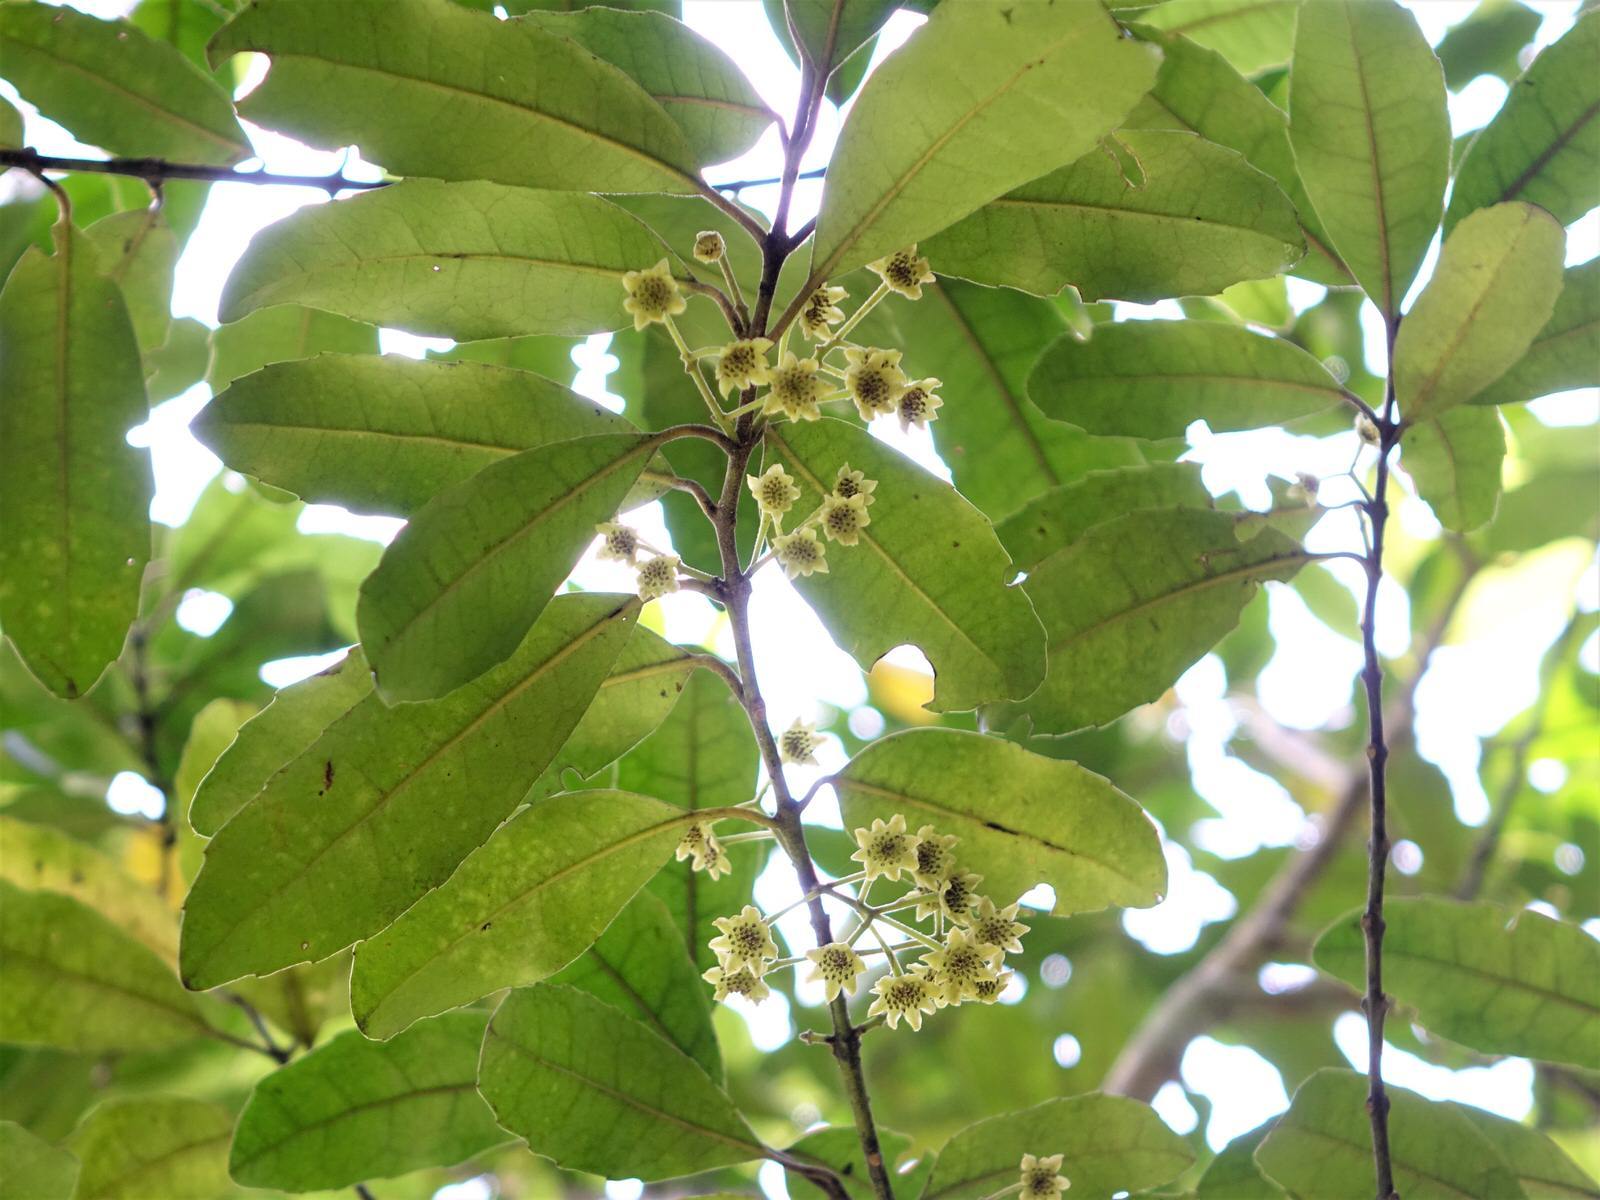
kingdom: Plantae
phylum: Tracheophyta
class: Magnoliopsida
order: Laurales
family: Monimiaceae
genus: Hedycarya
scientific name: Hedycarya arborea
